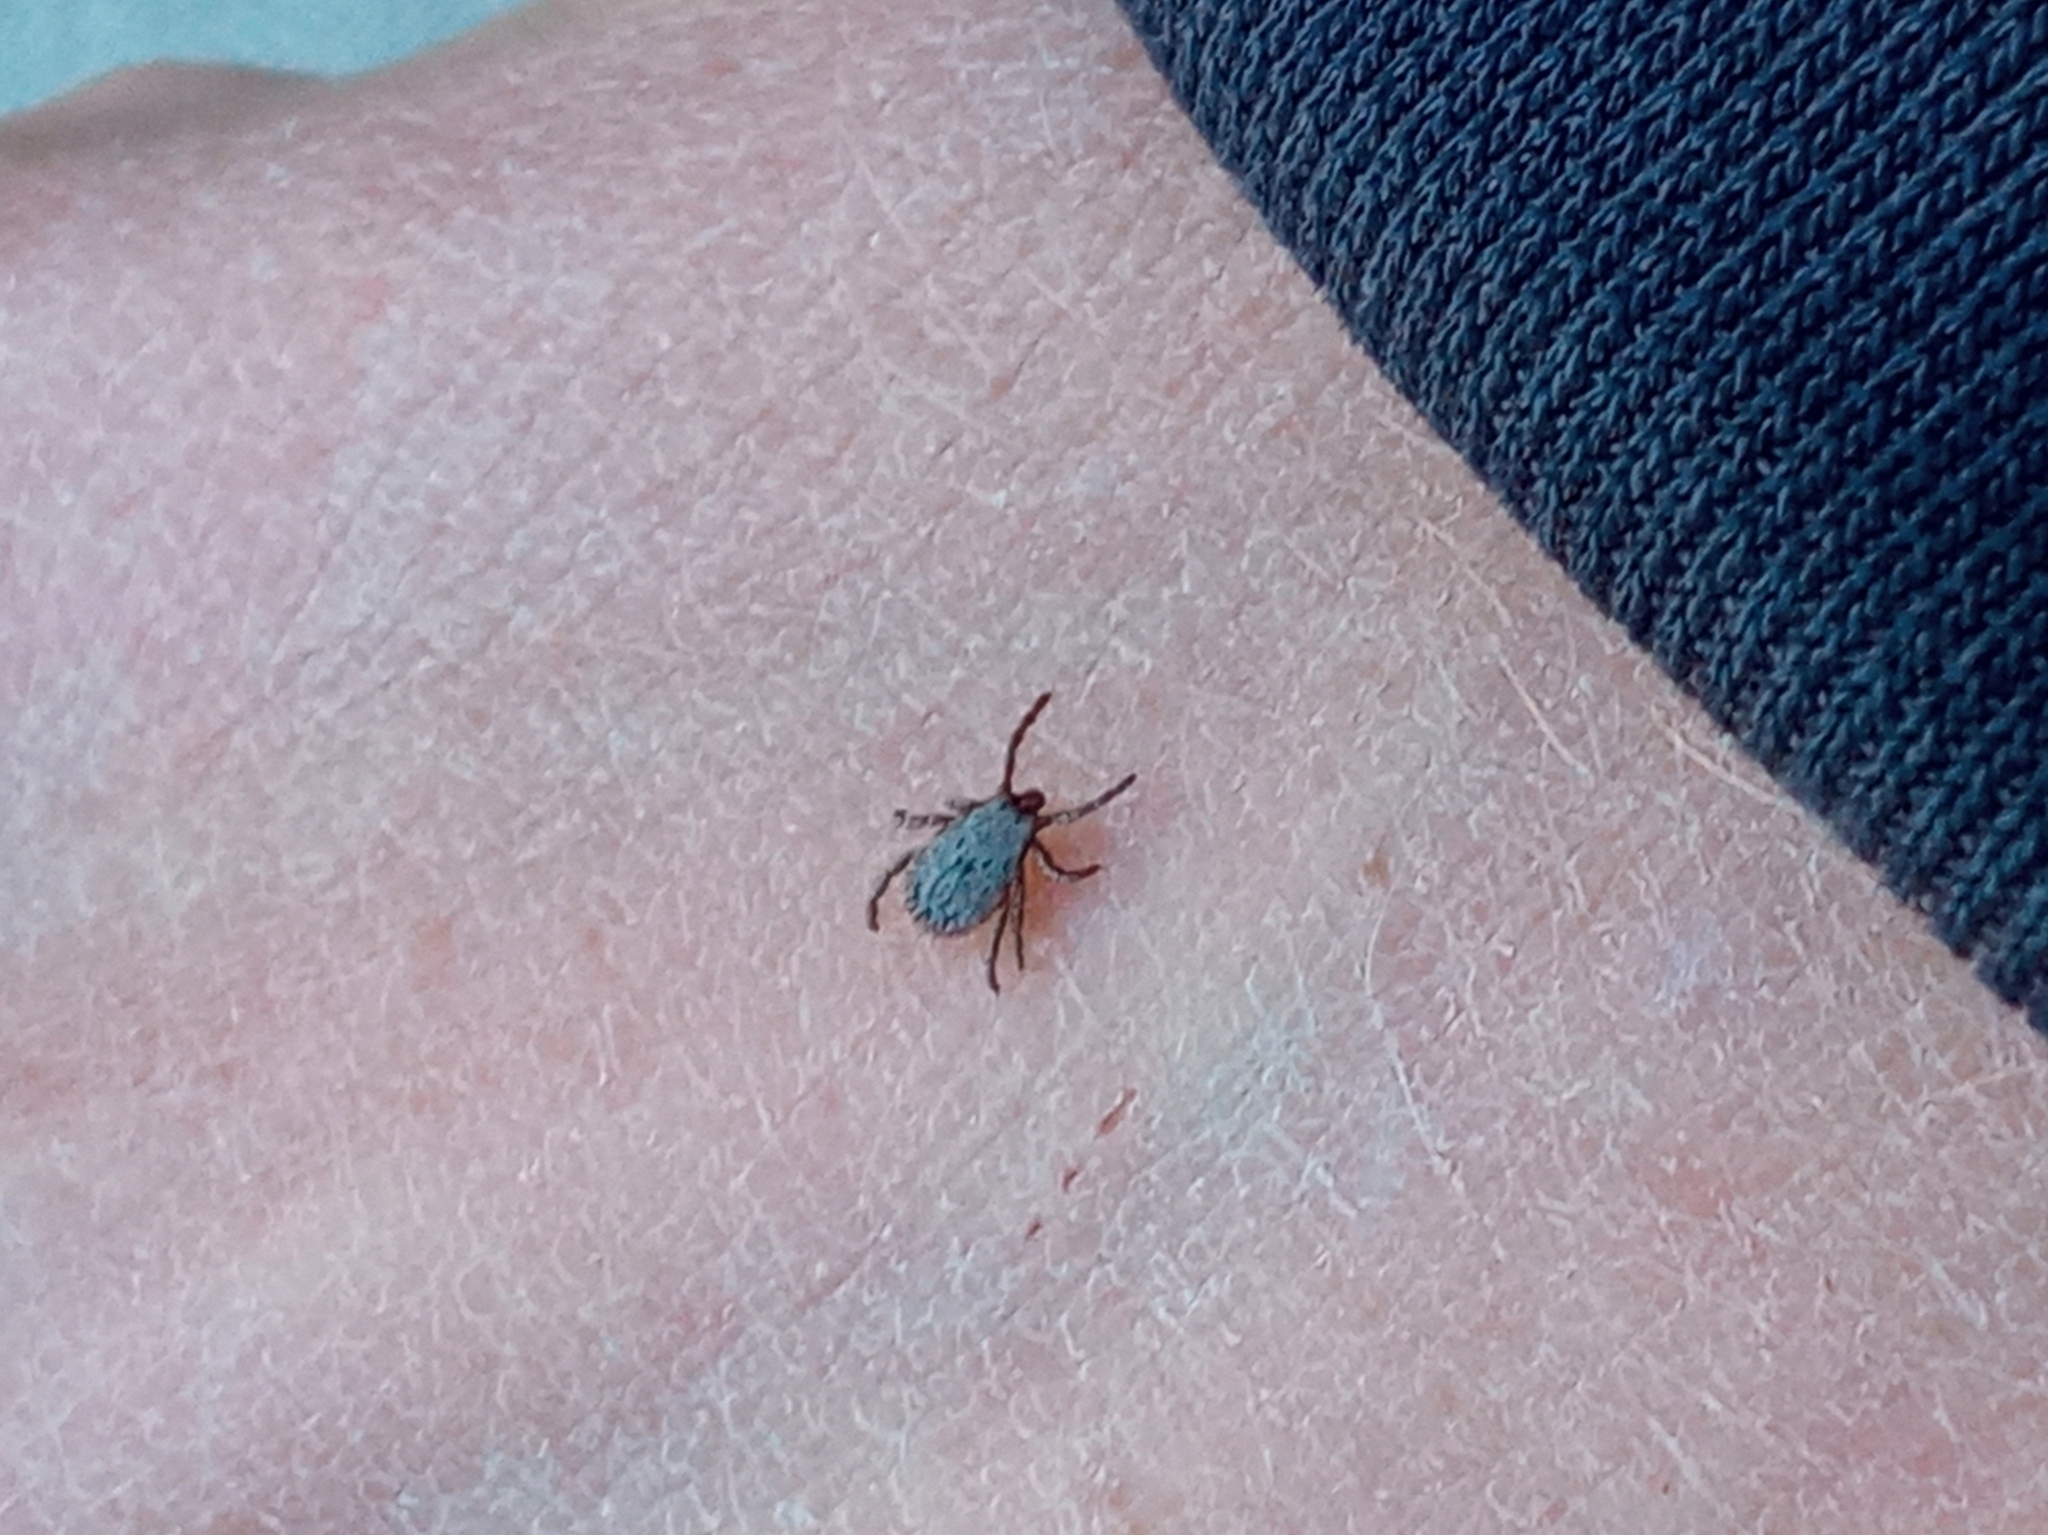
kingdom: Animalia
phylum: Arthropoda
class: Arachnida
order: Ixodida
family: Ixodidae
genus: Dermacentor
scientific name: Dermacentor occidentalis
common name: Net tick
